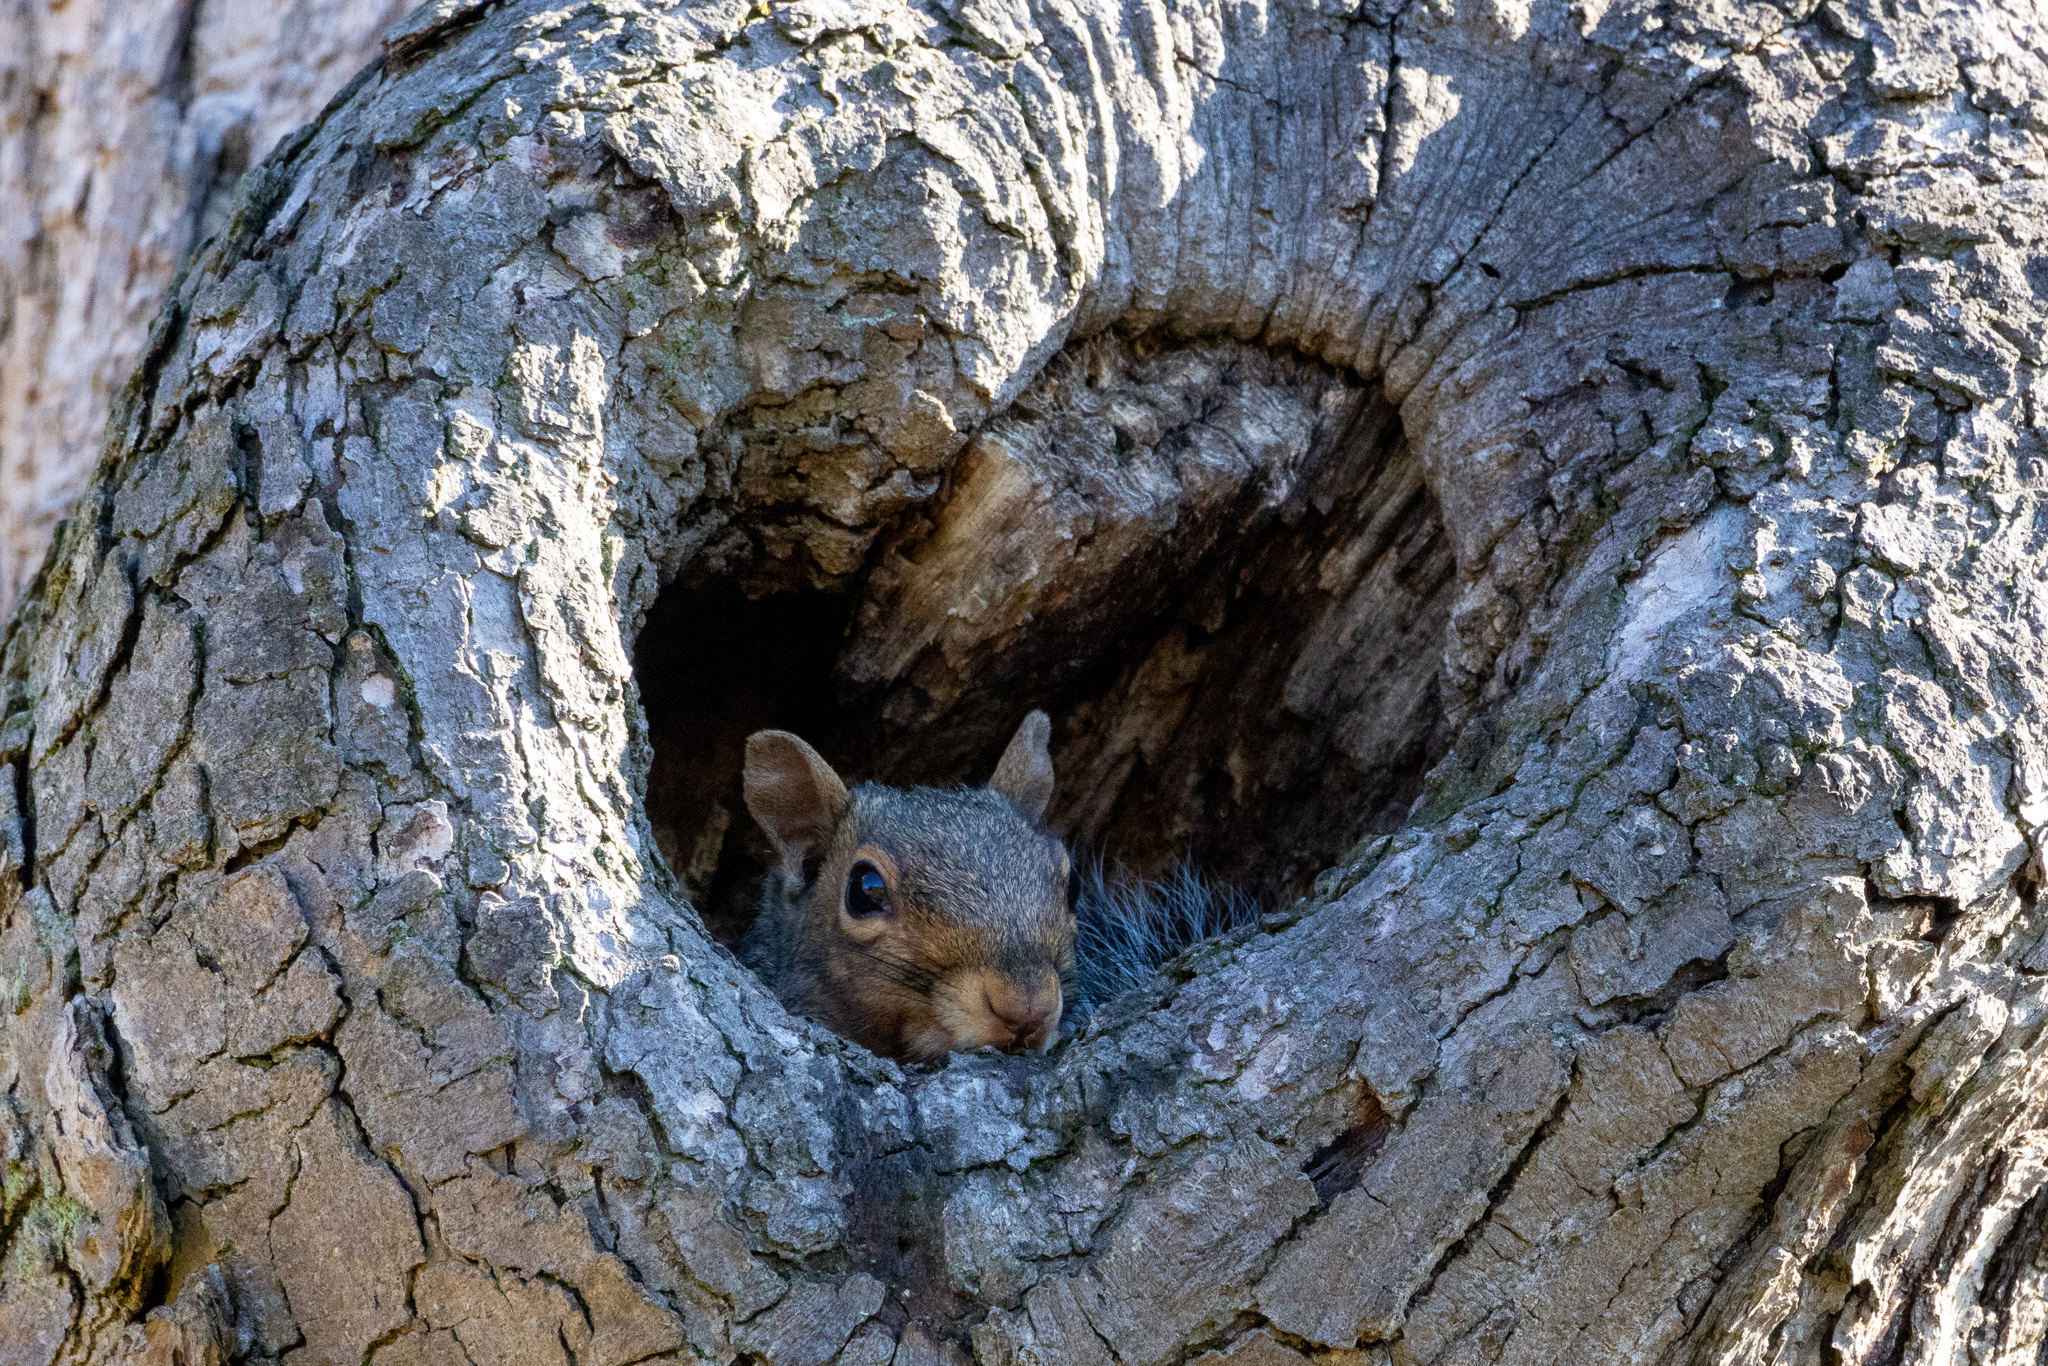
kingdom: Animalia
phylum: Chordata
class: Mammalia
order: Rodentia
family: Sciuridae
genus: Sciurus
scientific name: Sciurus carolinensis
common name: Eastern gray squirrel
